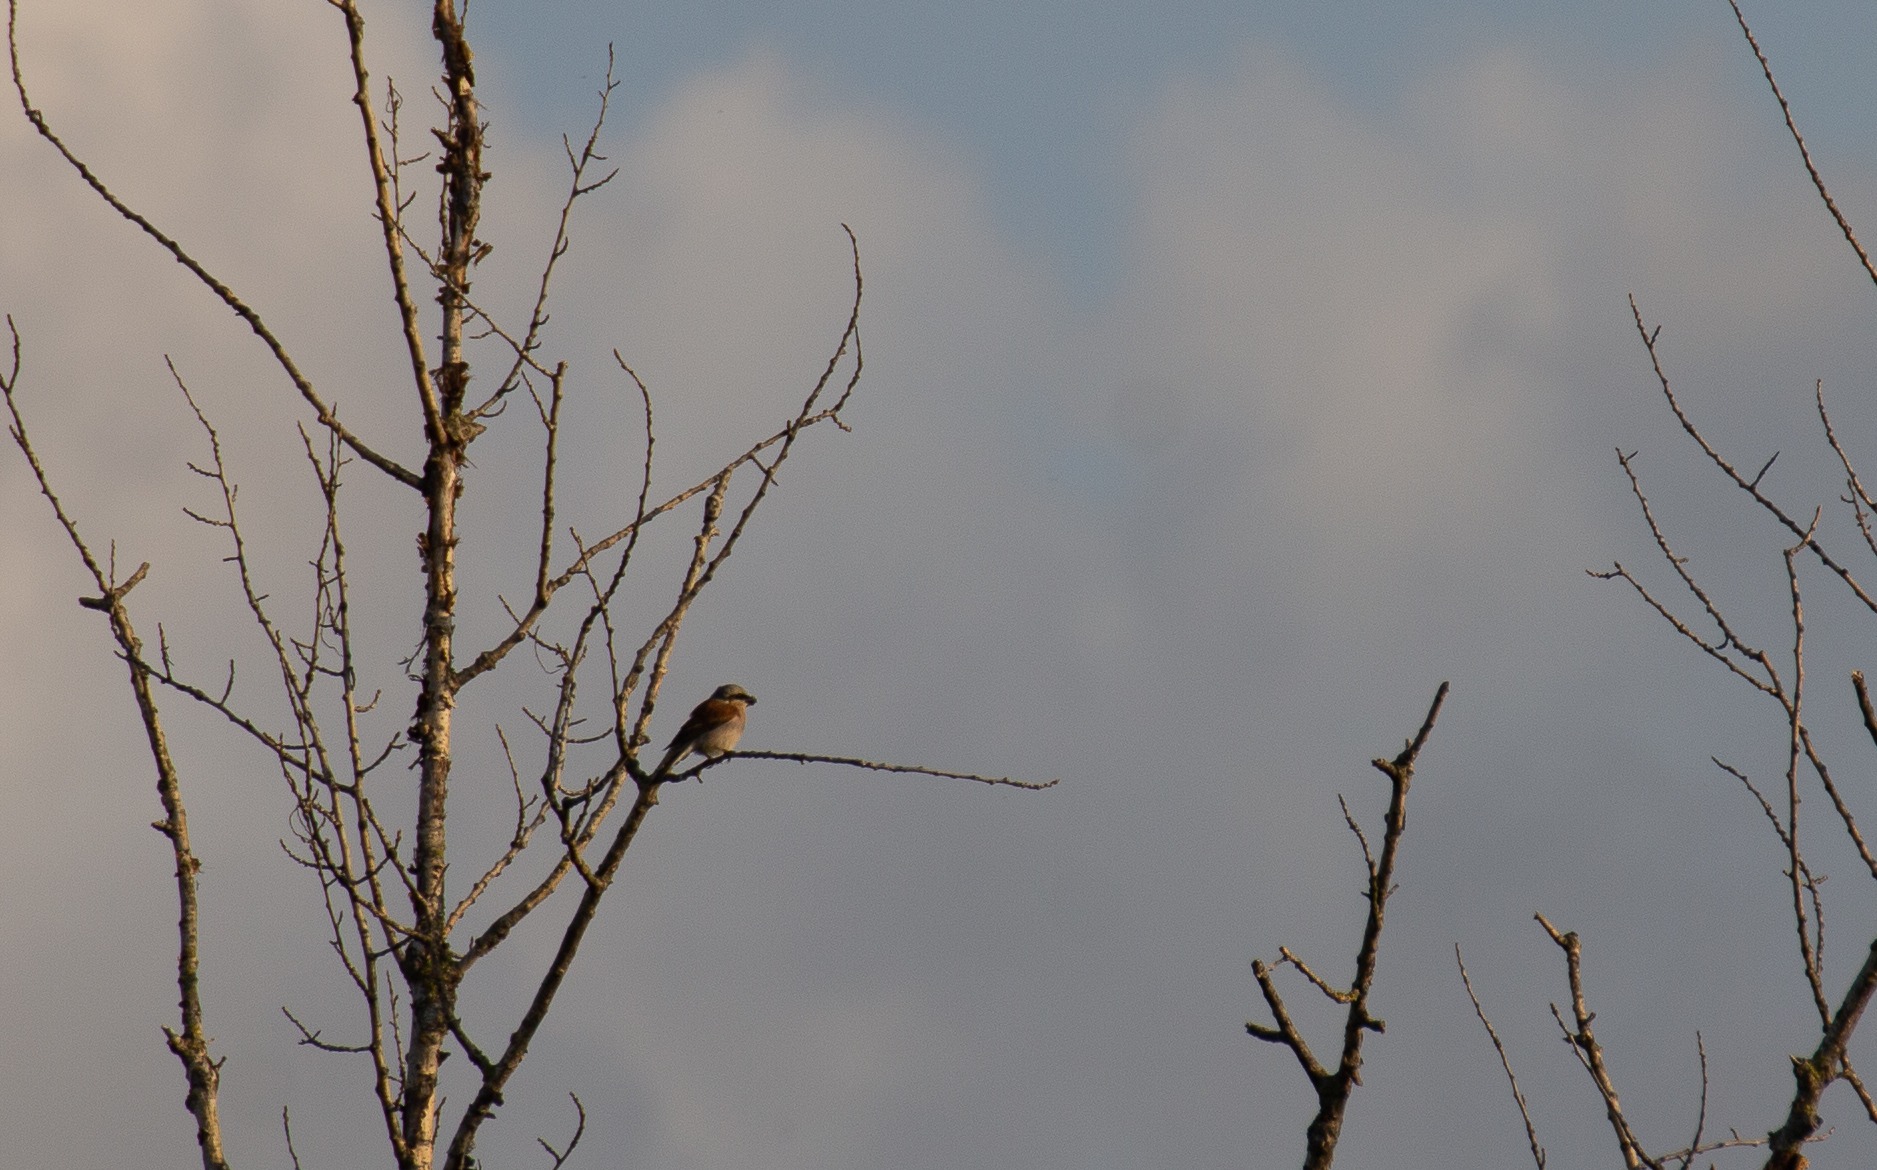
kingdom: Animalia
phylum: Chordata
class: Aves
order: Passeriformes
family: Laniidae
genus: Lanius
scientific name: Lanius collurio
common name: Red-backed shrike
